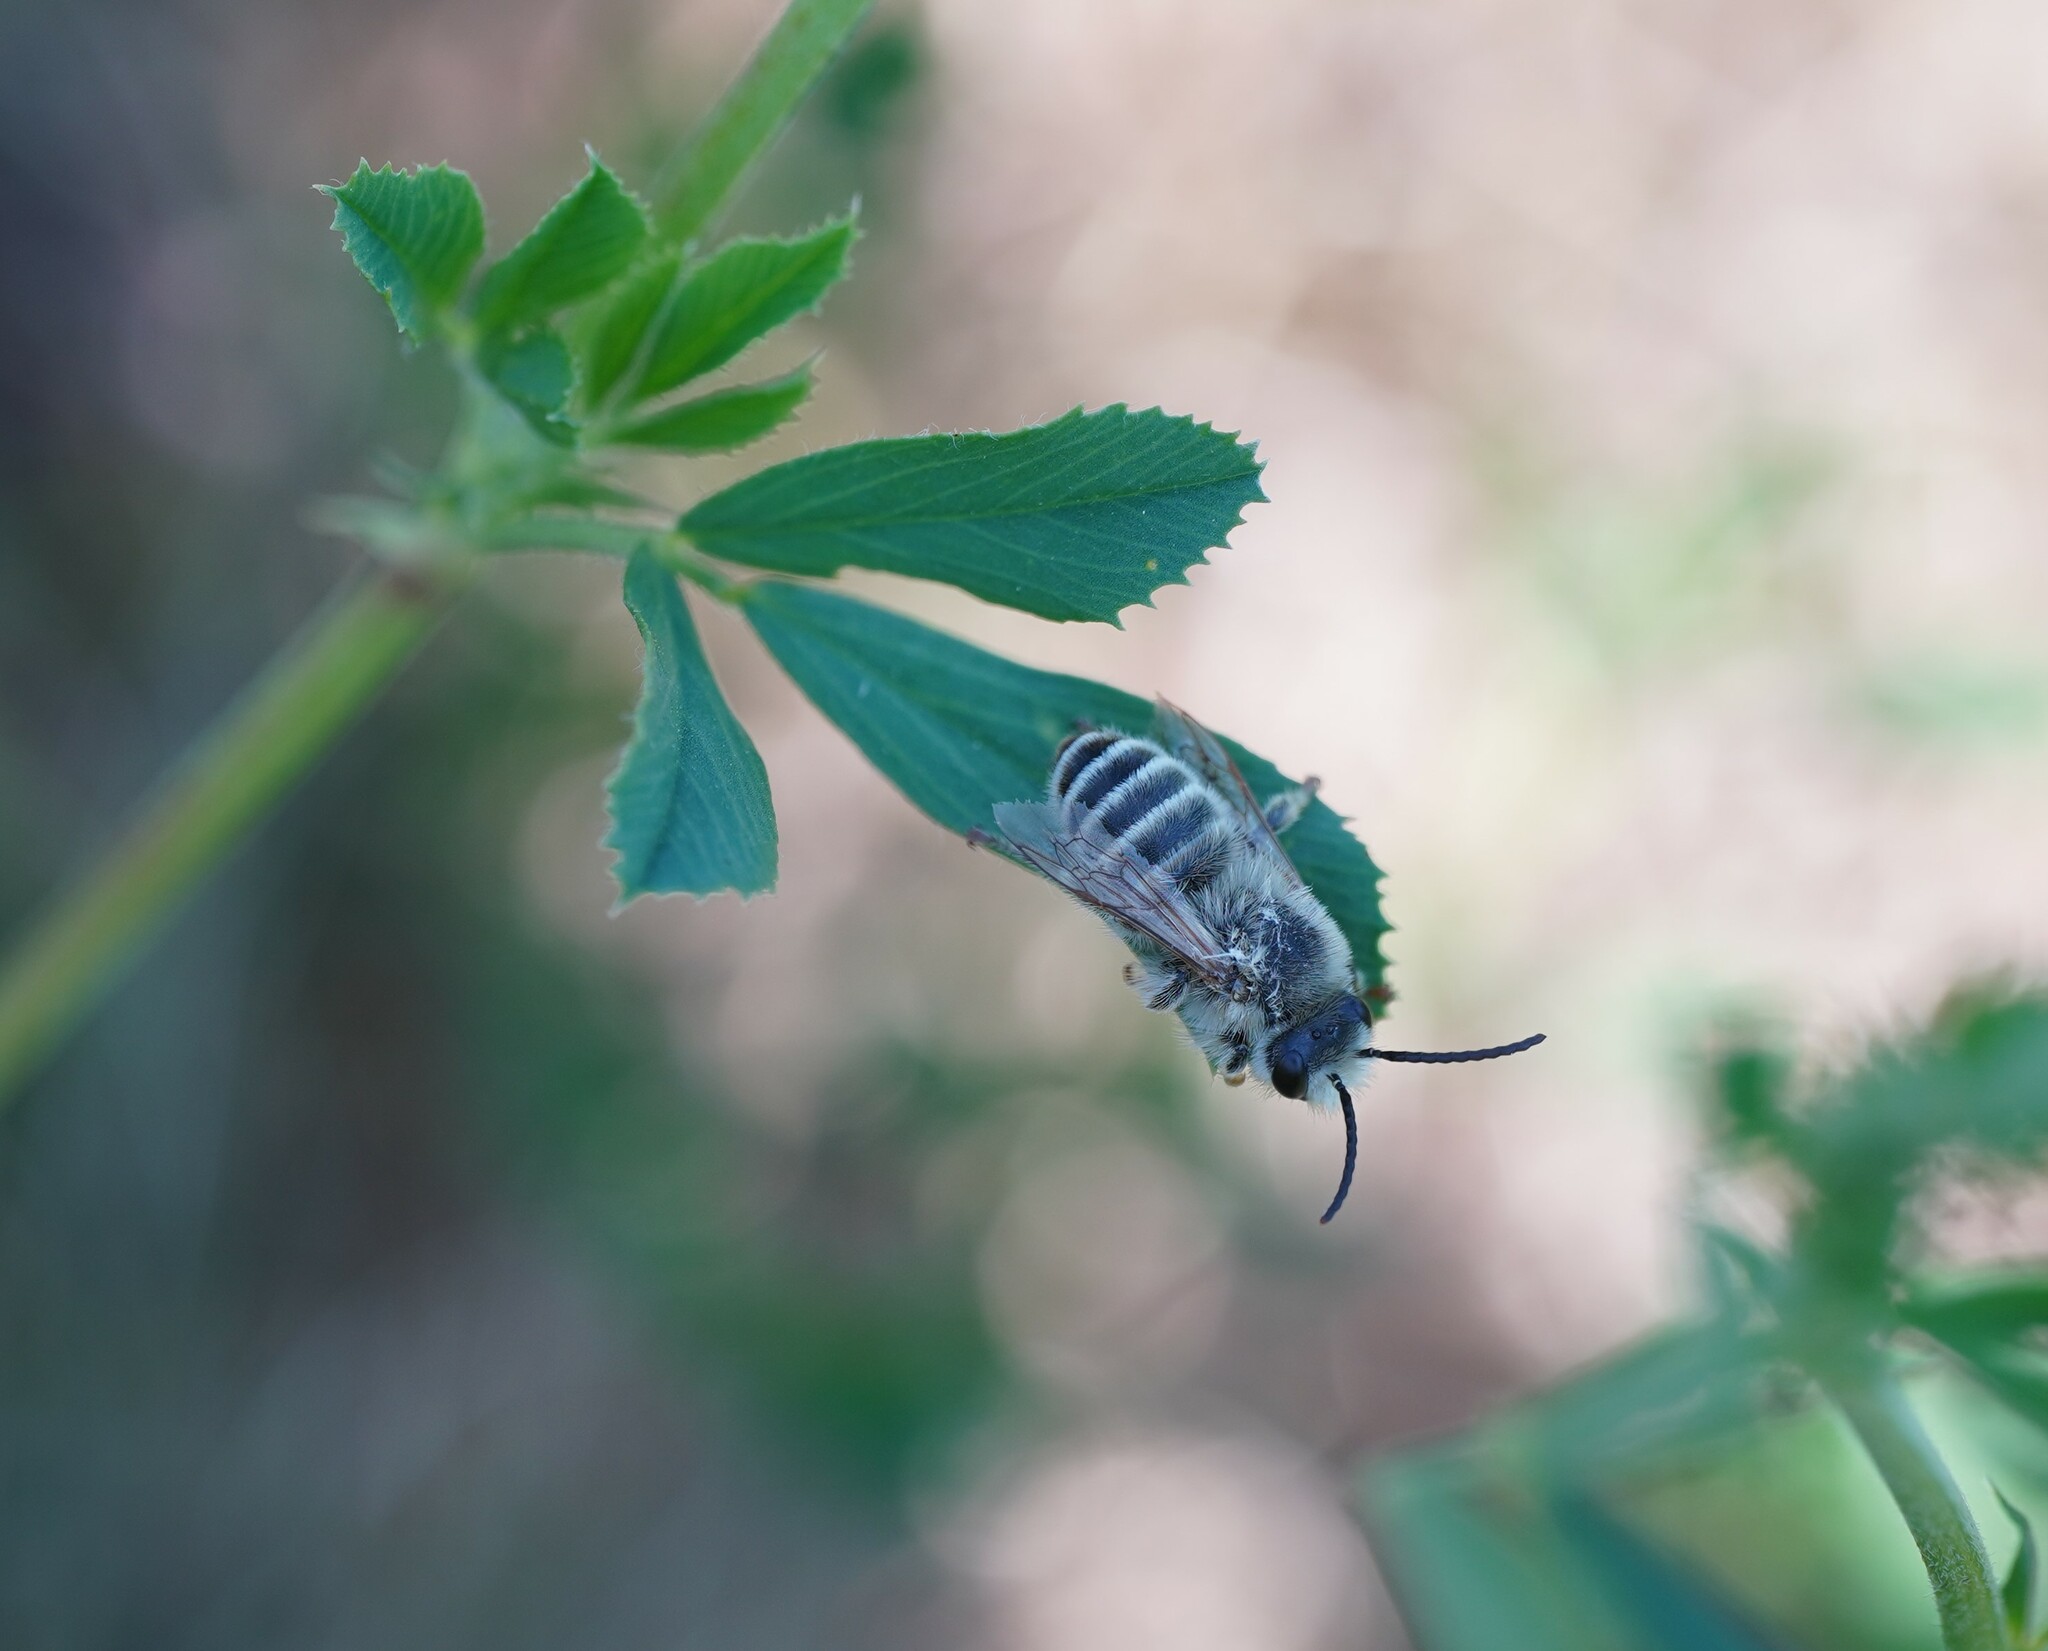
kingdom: Animalia
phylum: Arthropoda
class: Insecta
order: Hymenoptera
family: Melittidae
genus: Melitta
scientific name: Melitta leporina
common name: Clover melitta
